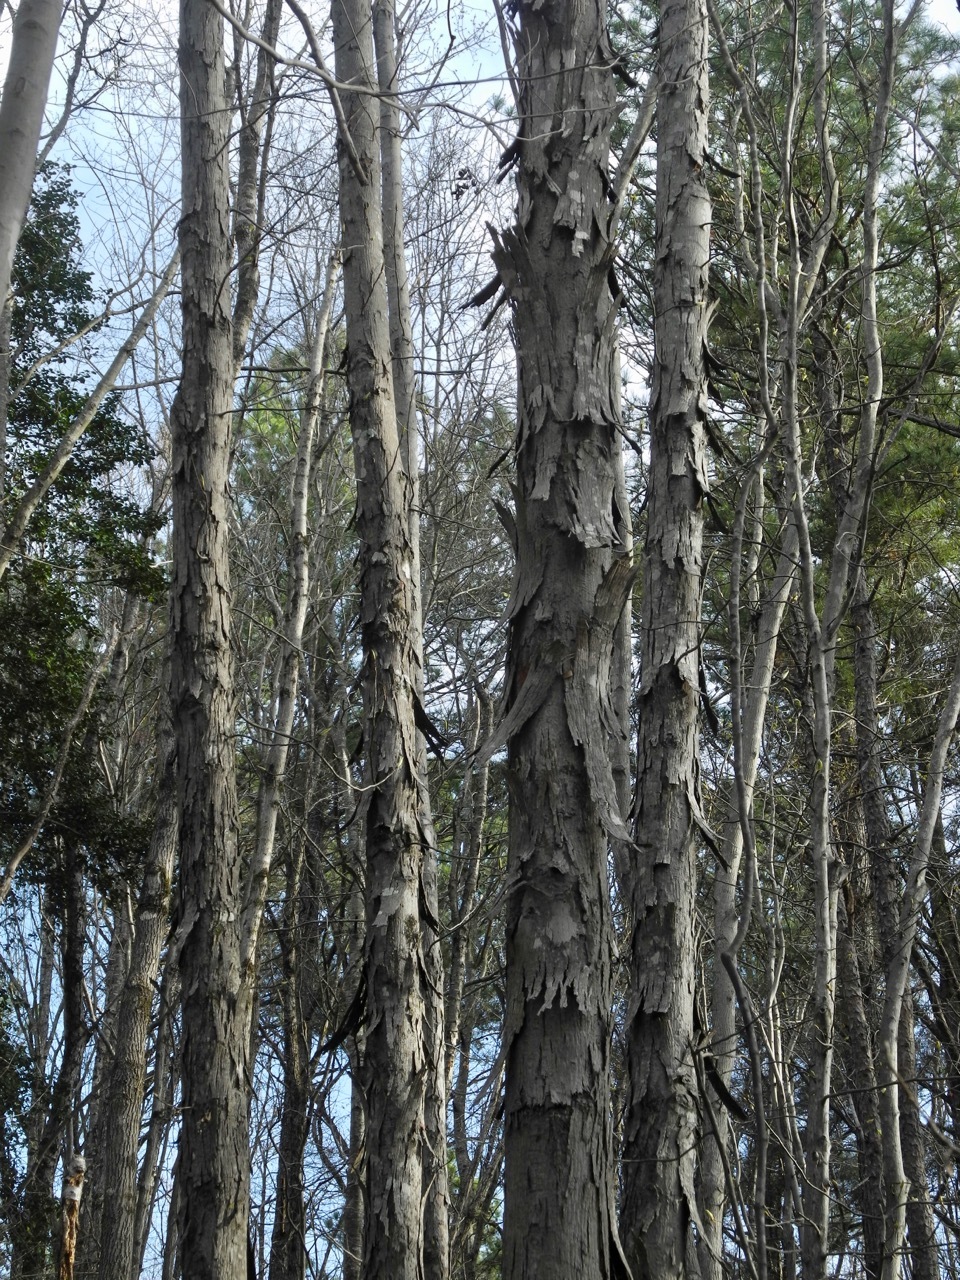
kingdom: Plantae
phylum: Tracheophyta
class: Magnoliopsida
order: Fagales
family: Juglandaceae
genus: Carya
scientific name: Carya ovata
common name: Shagbark hickory
